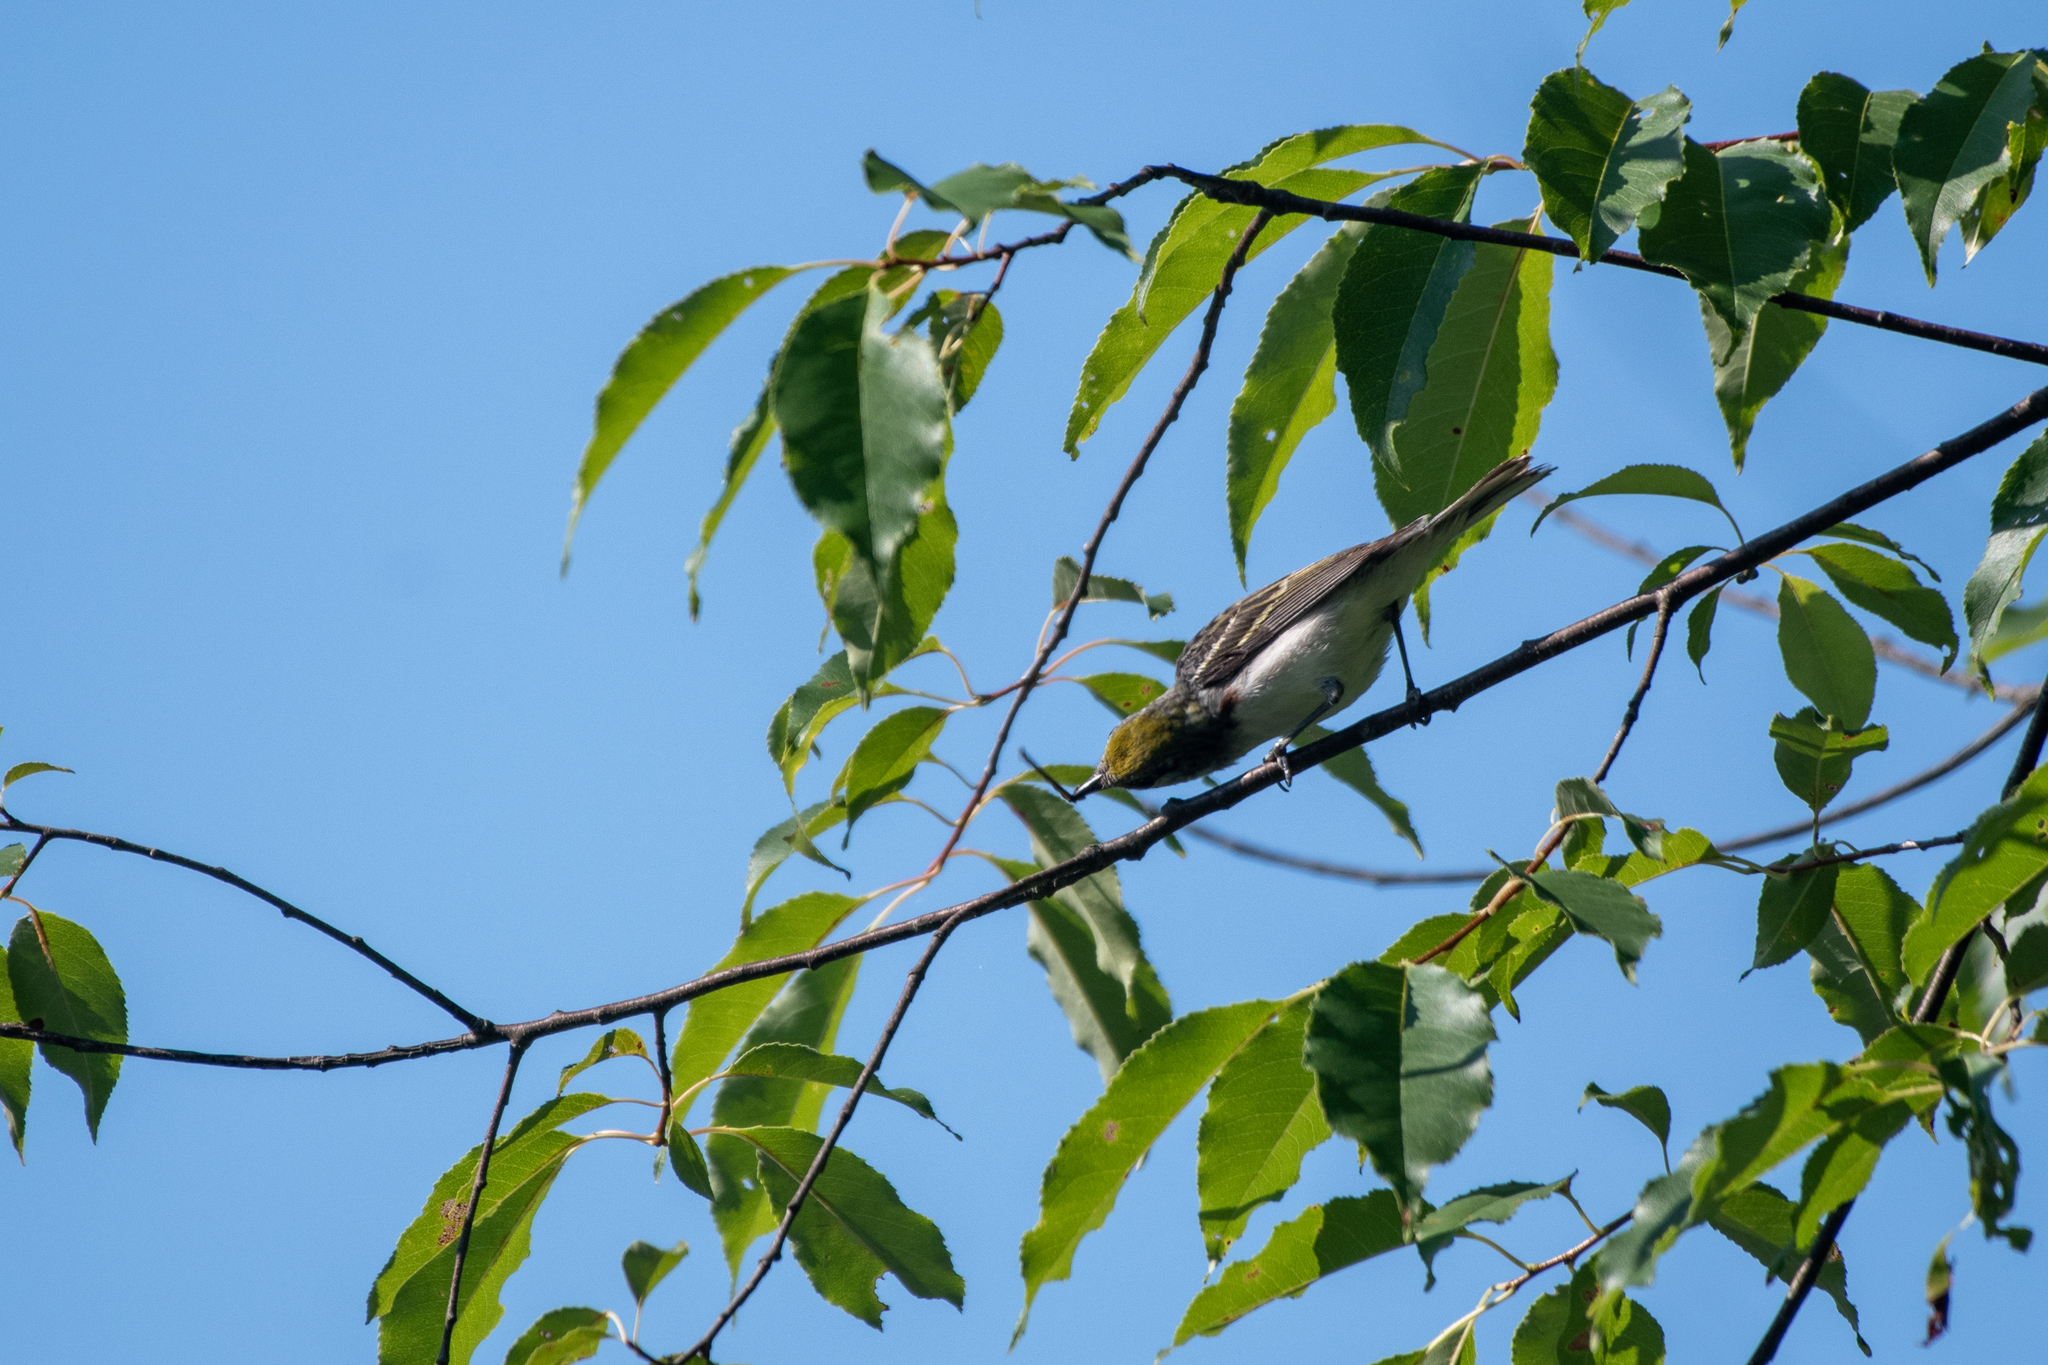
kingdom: Animalia
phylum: Chordata
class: Aves
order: Passeriformes
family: Parulidae
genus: Setophaga
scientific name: Setophaga pensylvanica
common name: Chestnut-sided warbler
